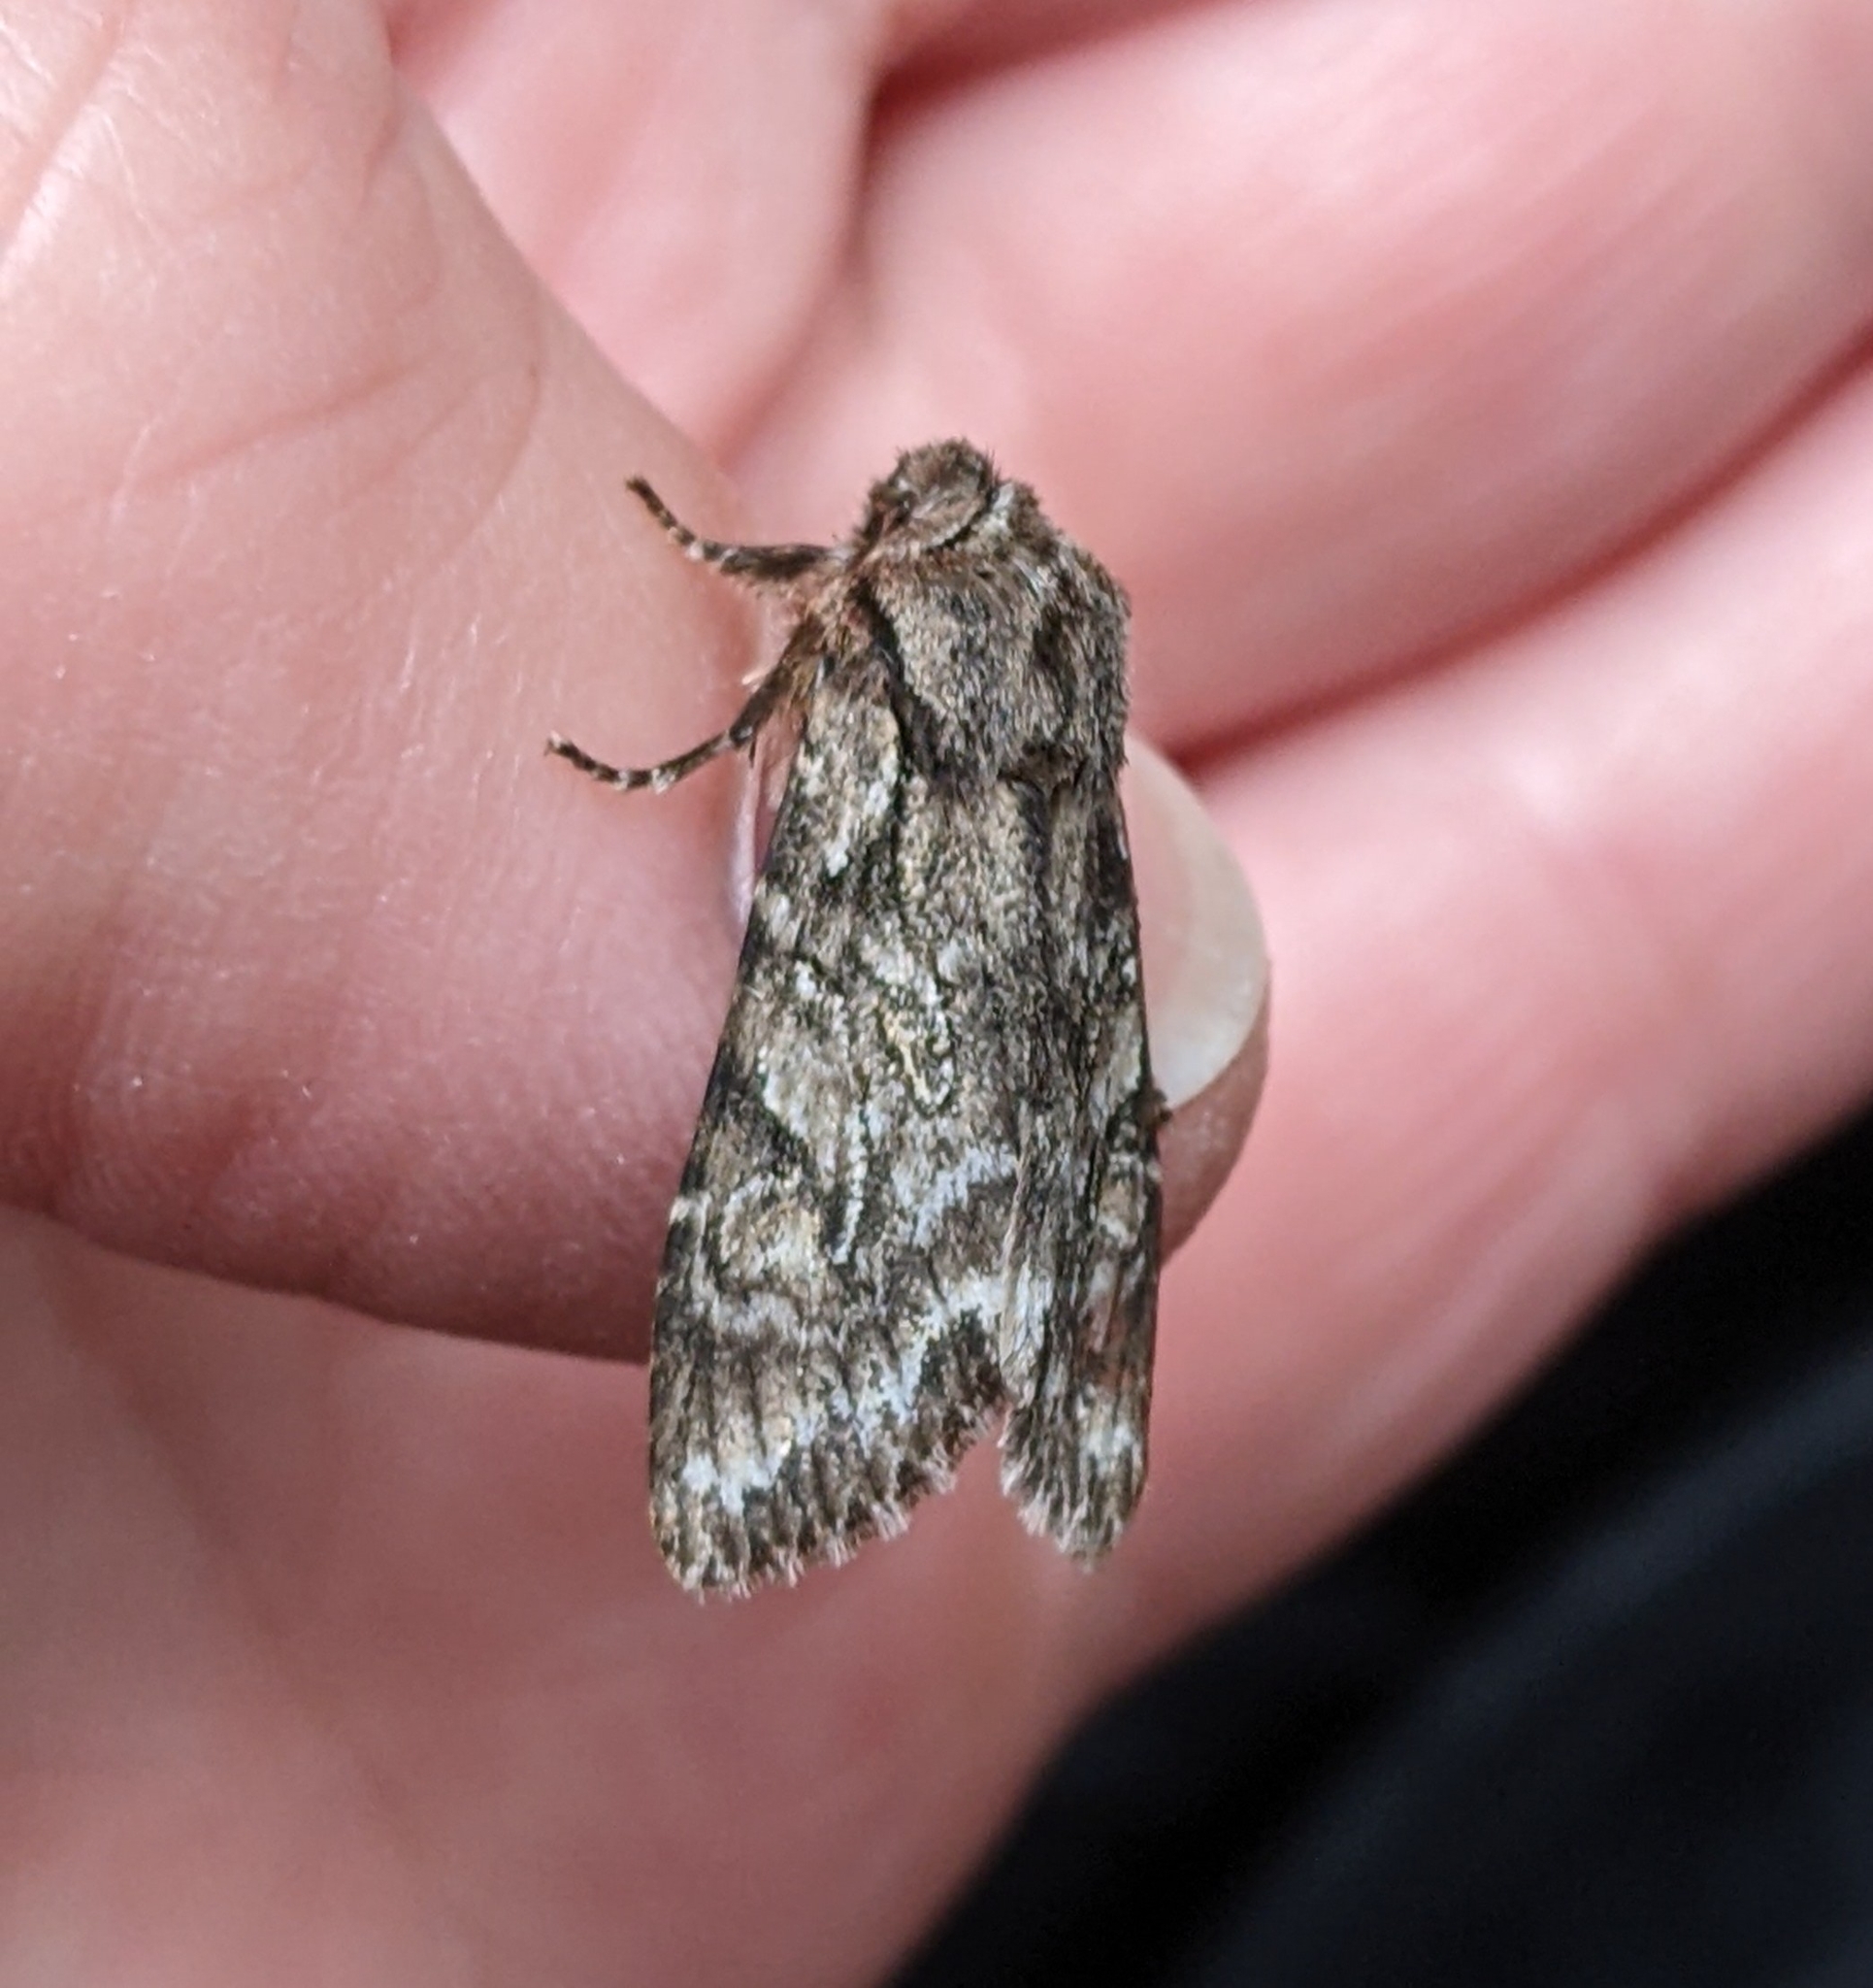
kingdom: Animalia
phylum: Arthropoda
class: Insecta
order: Lepidoptera
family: Noctuidae
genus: Egira
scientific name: Egira simplex
